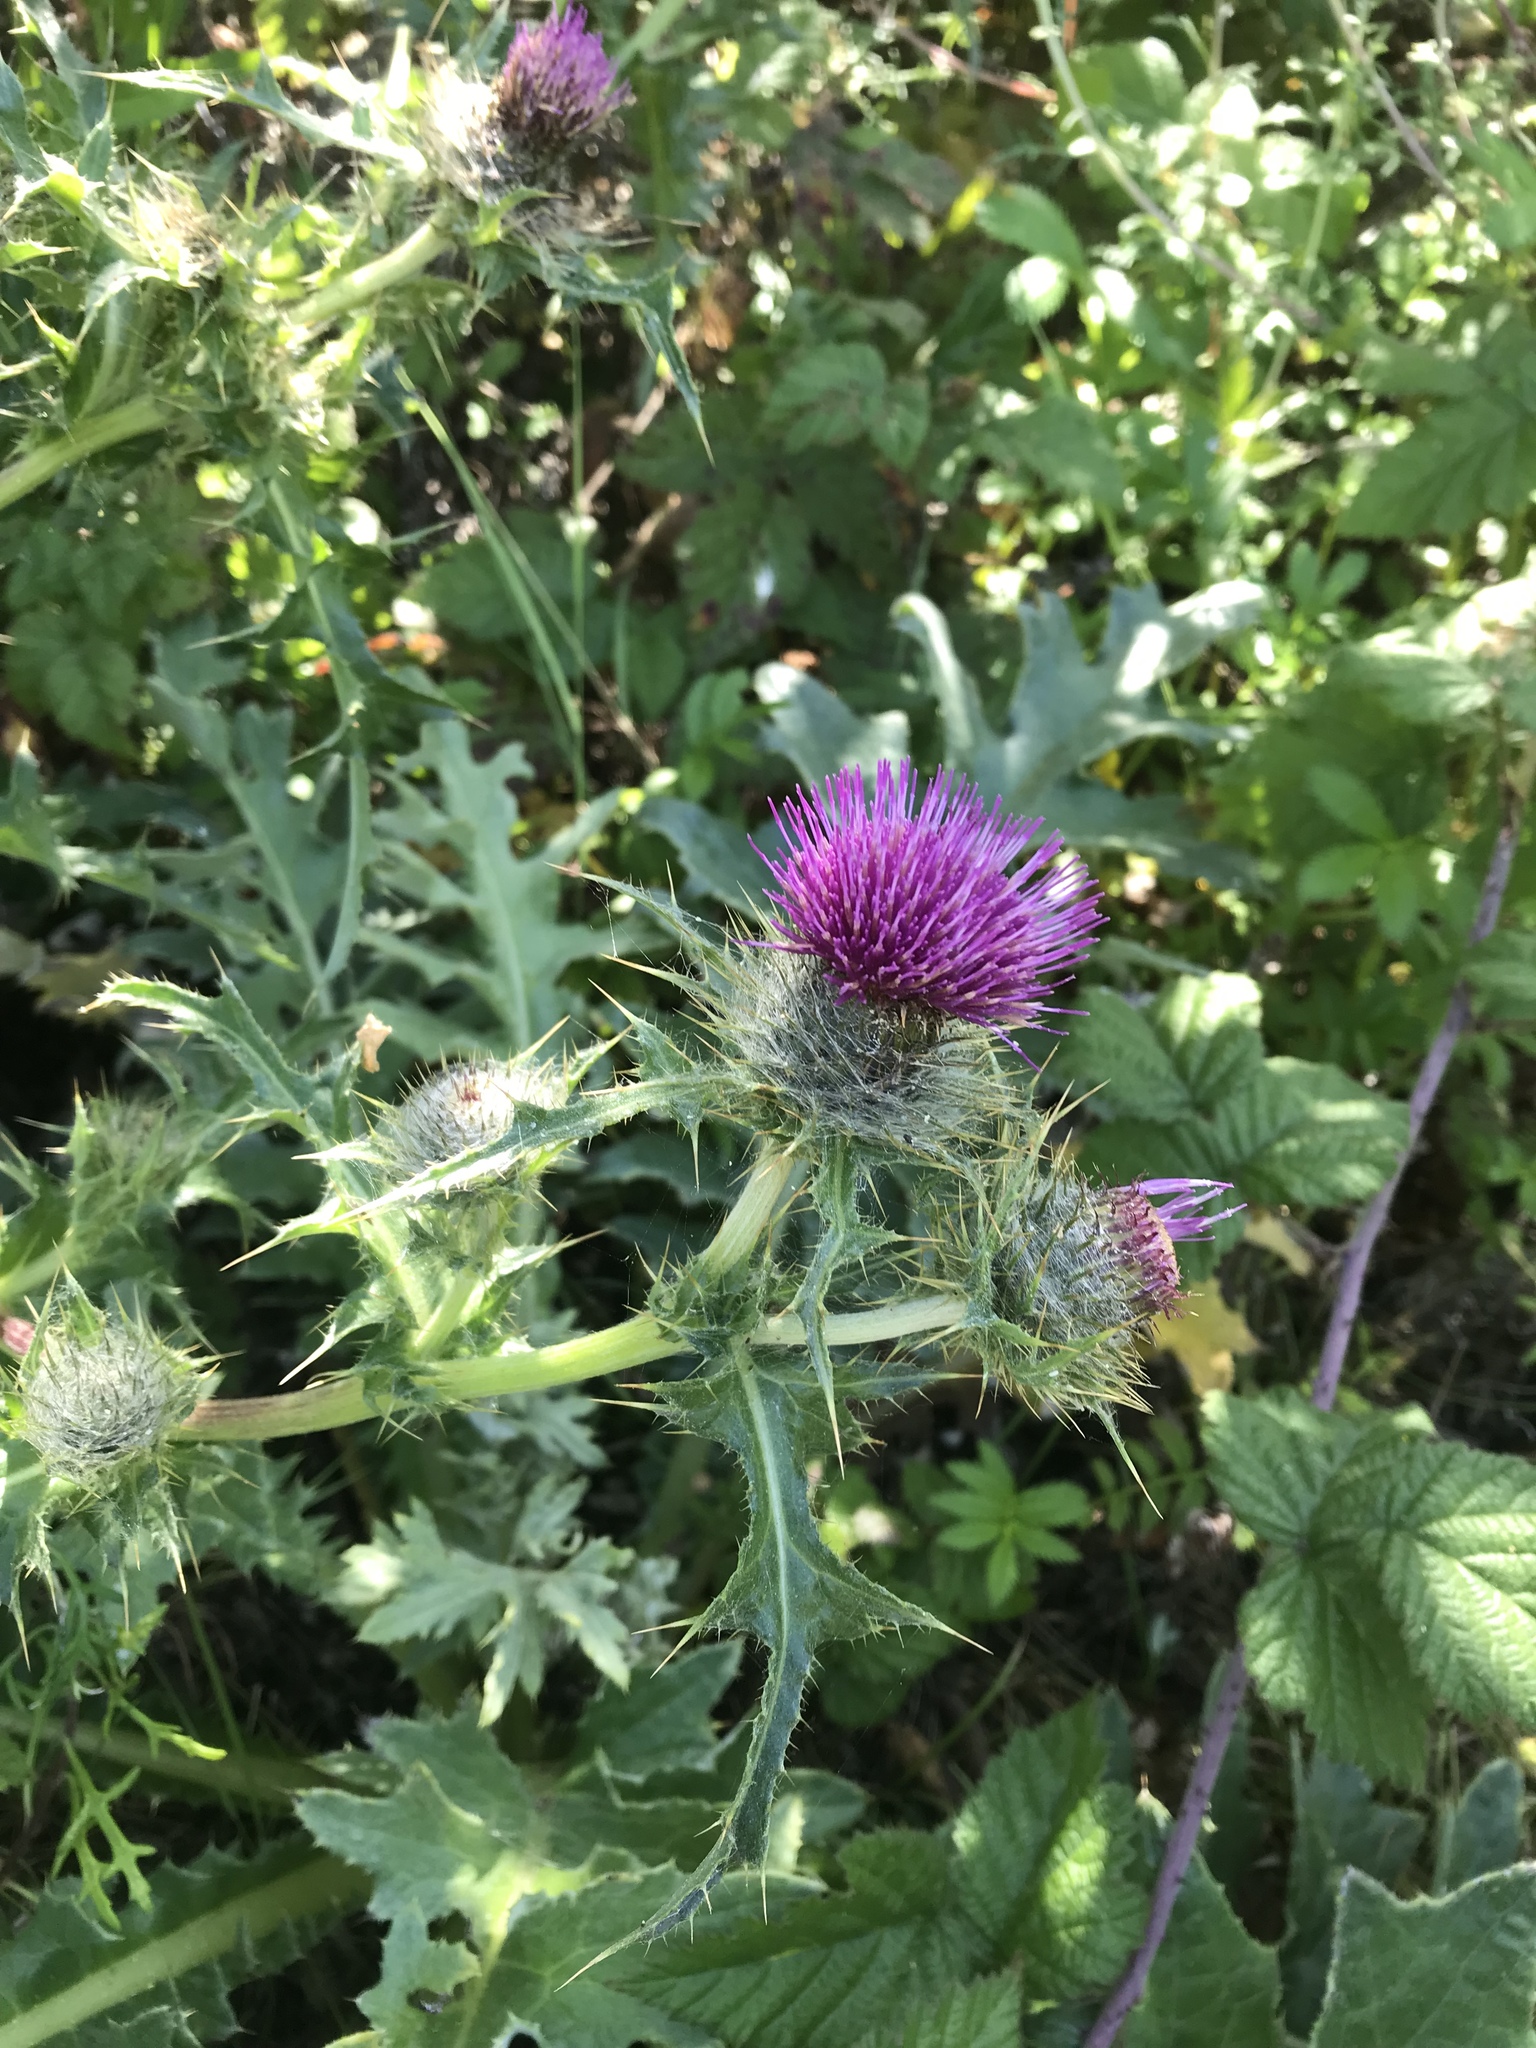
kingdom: Plantae
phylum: Tracheophyta
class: Magnoliopsida
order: Asterales
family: Asteraceae
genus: Cirsium
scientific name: Cirsium andrewsii
